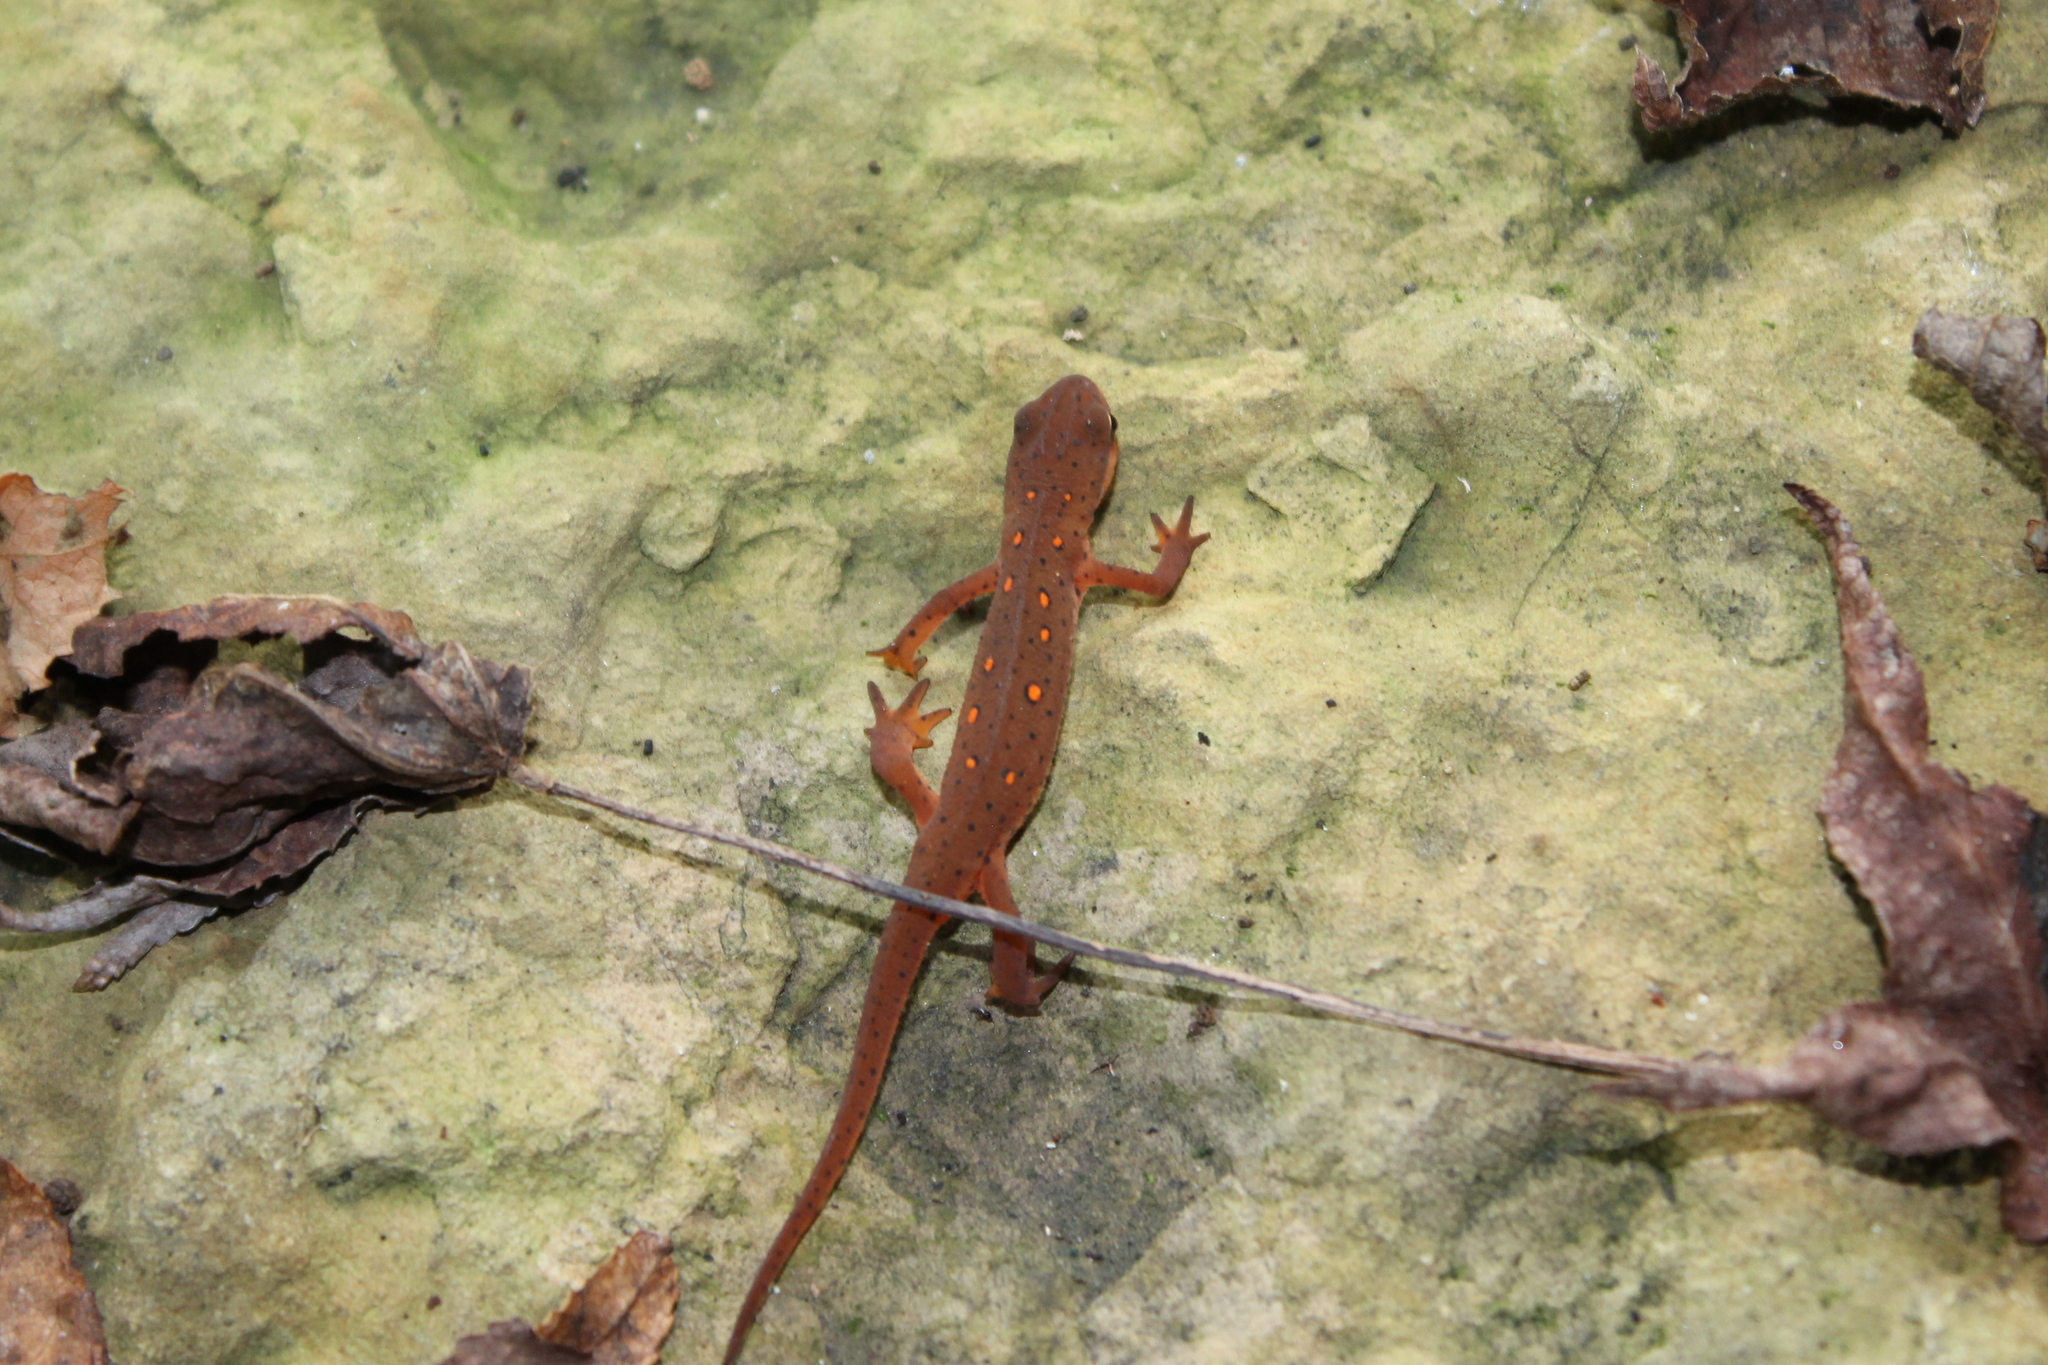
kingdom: Animalia
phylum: Chordata
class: Amphibia
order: Caudata
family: Salamandridae
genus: Notophthalmus
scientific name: Notophthalmus viridescens
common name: Eastern newt
